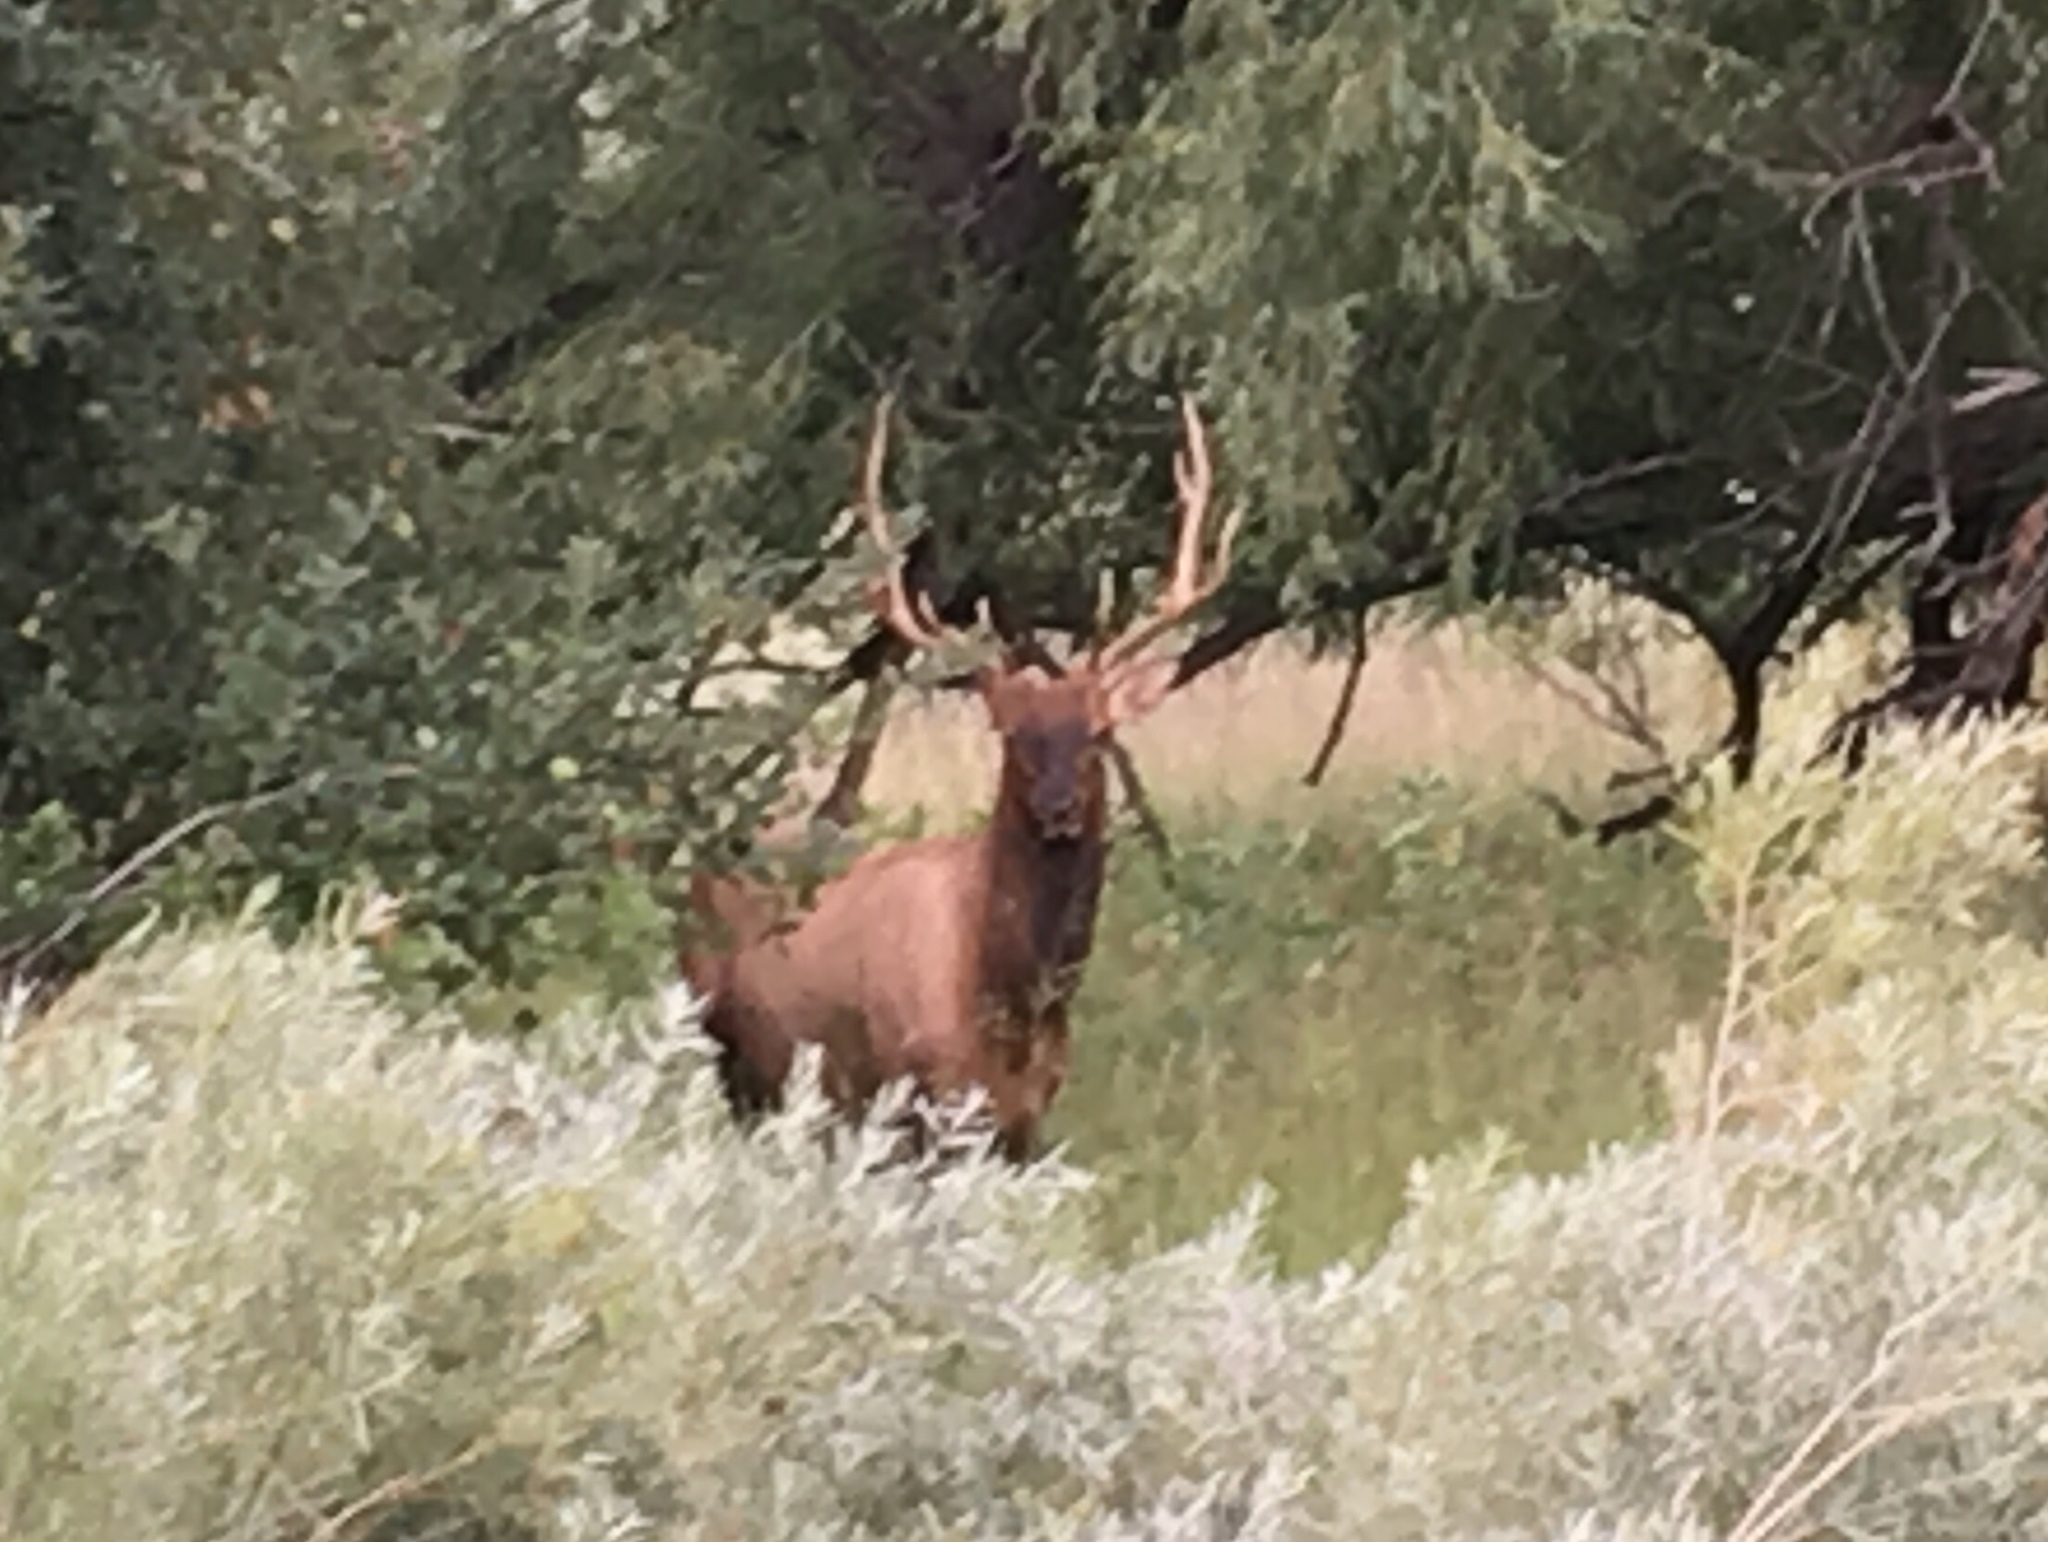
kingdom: Animalia
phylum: Chordata
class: Mammalia
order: Artiodactyla
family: Cervidae
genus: Cervus
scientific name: Cervus elaphus
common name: Red deer
